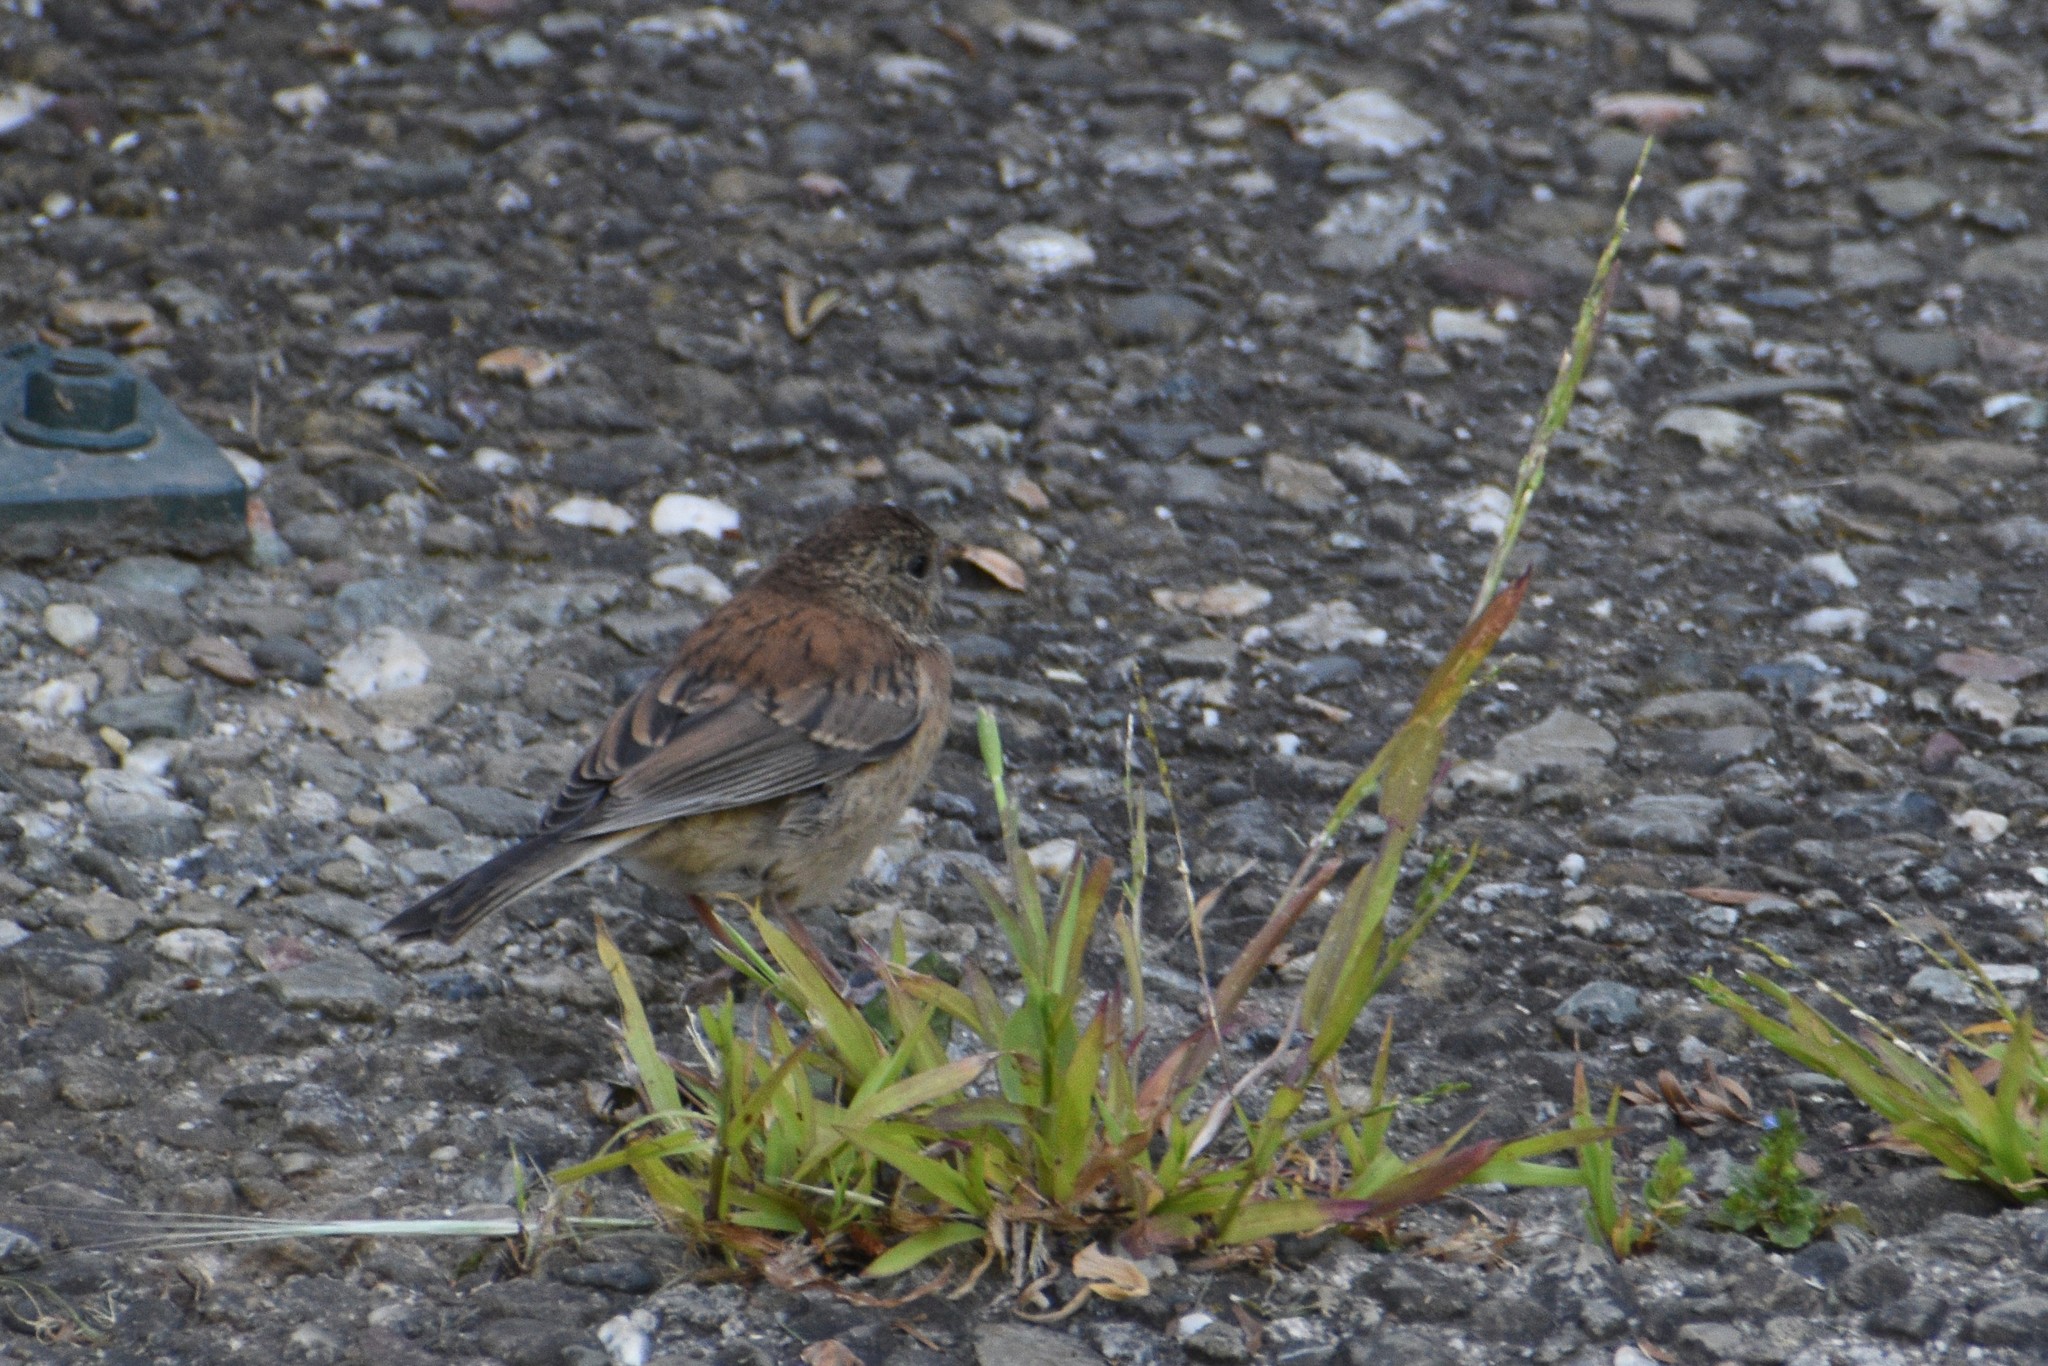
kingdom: Animalia
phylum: Chordata
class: Aves
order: Passeriformes
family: Passerellidae
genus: Junco
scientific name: Junco hyemalis
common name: Dark-eyed junco
